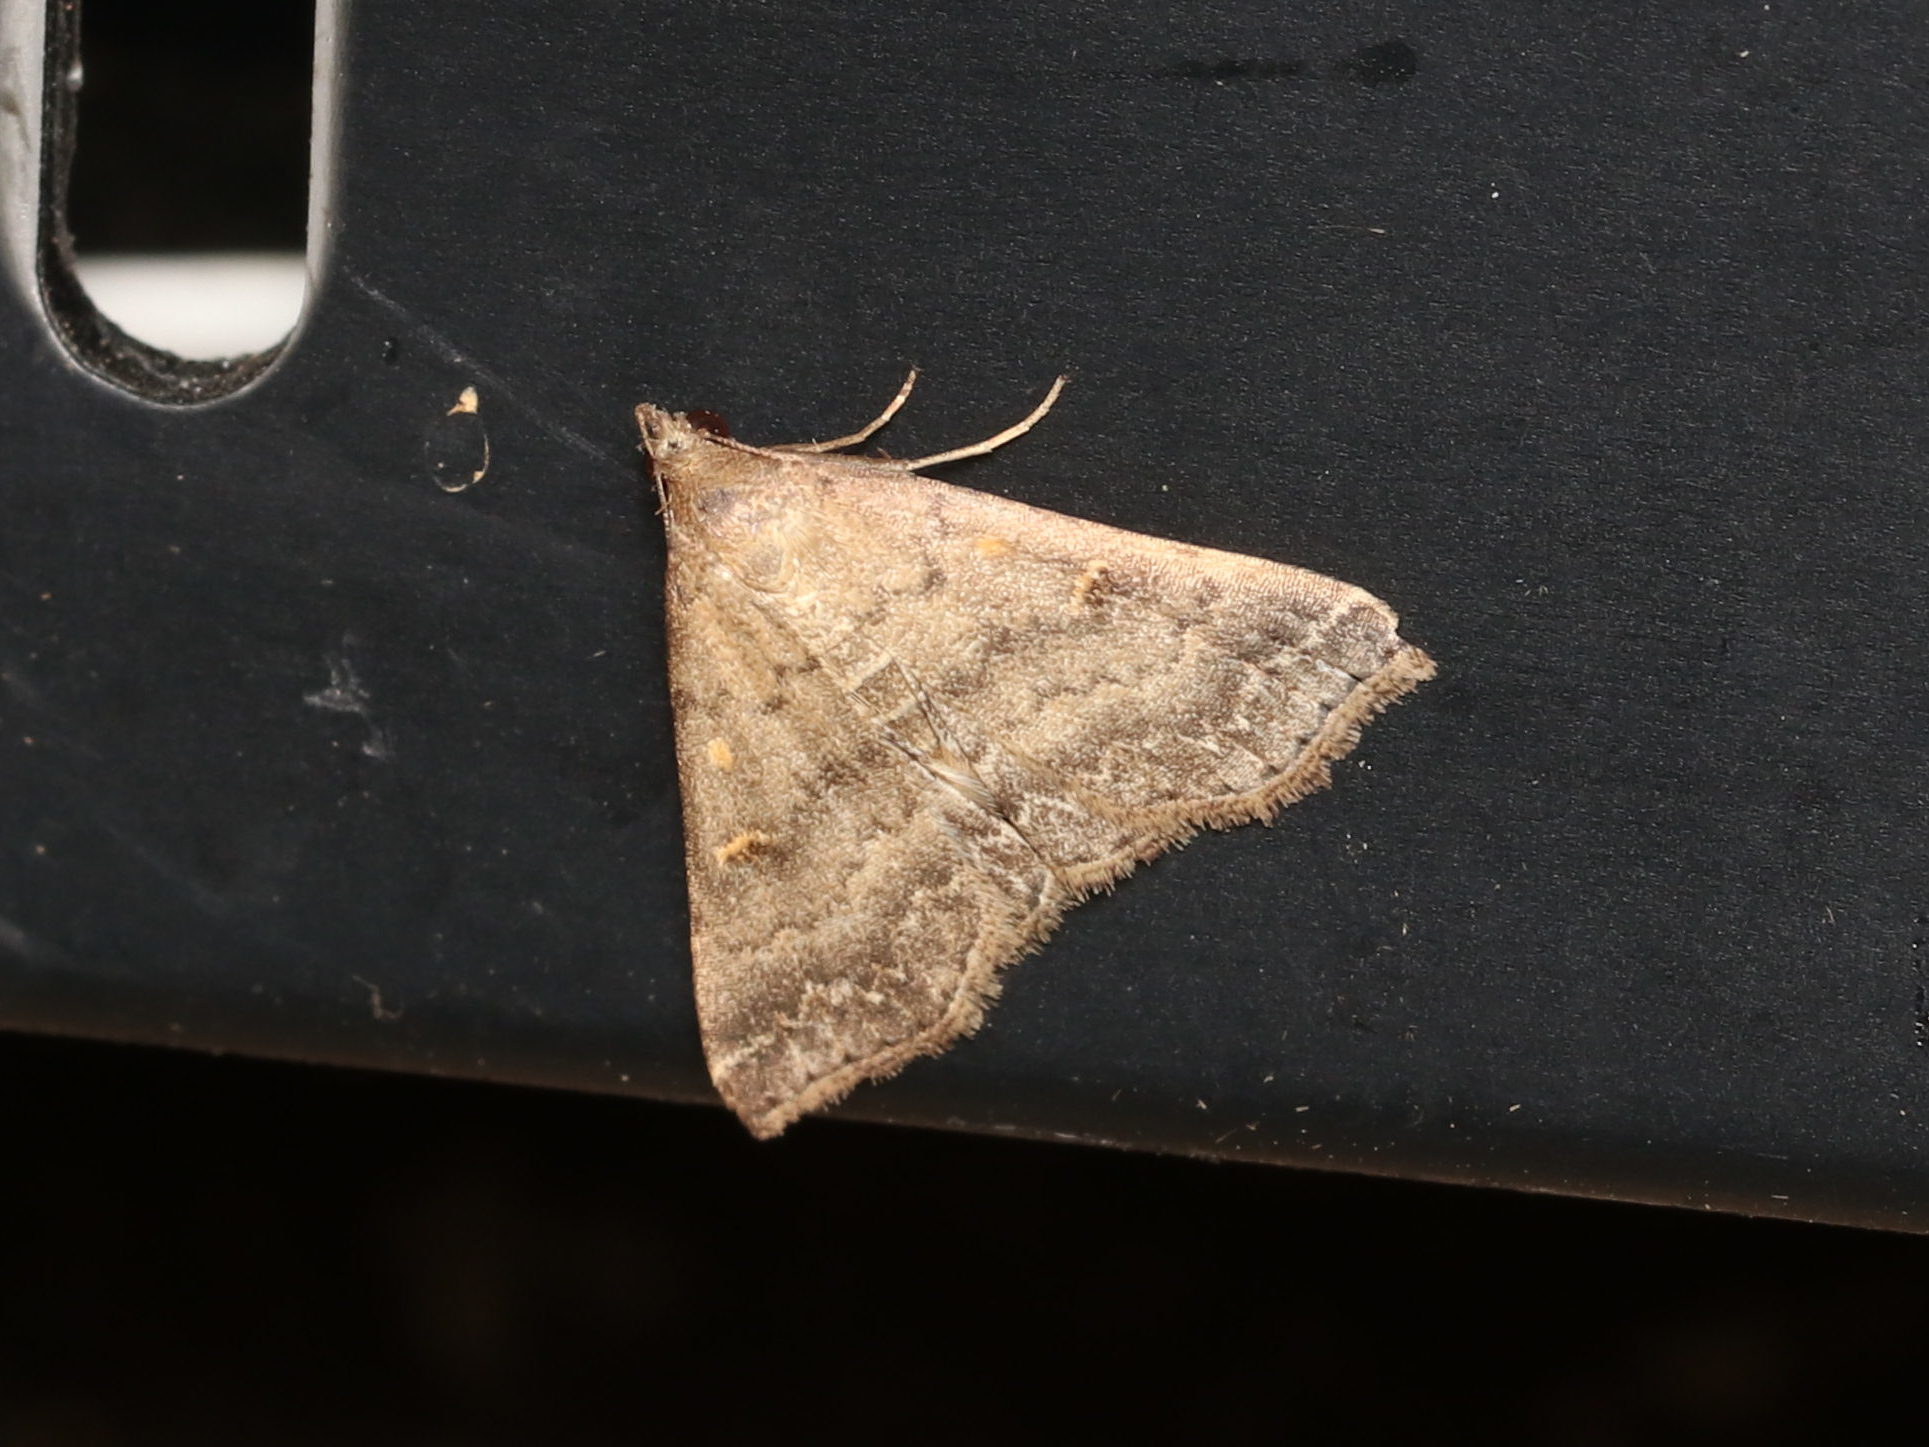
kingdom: Animalia
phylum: Arthropoda
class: Insecta
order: Lepidoptera
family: Erebidae
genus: Tetanolita
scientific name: Tetanolita floridana
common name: Florida tetanolita moth
